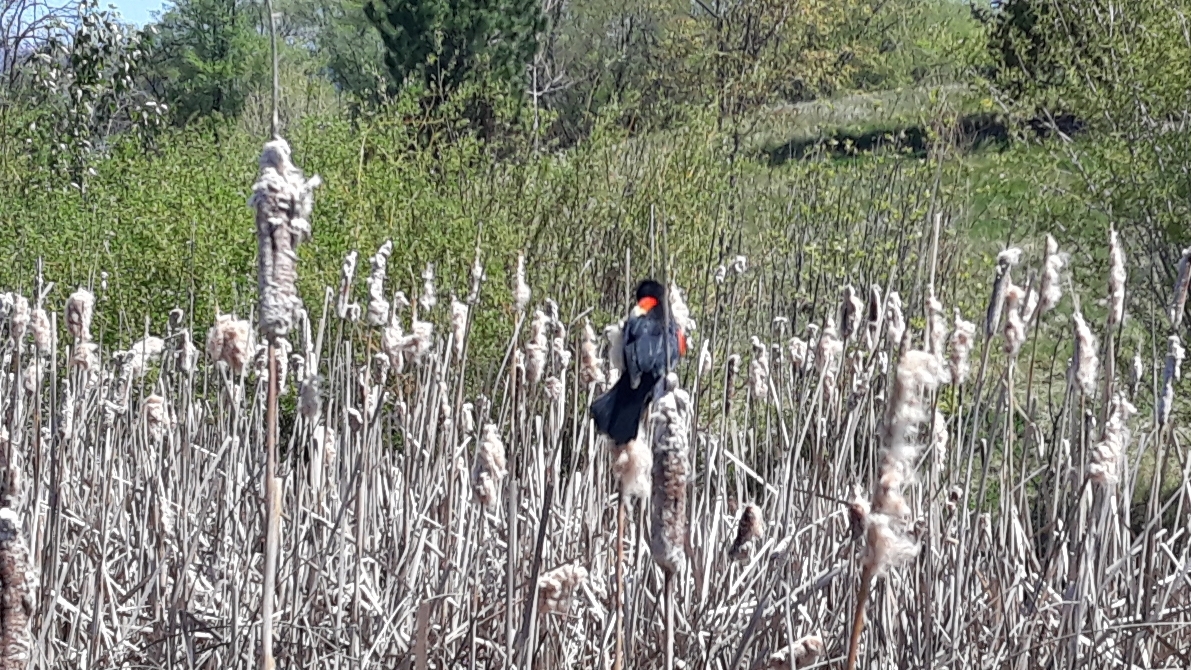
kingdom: Animalia
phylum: Chordata
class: Aves
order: Passeriformes
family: Icteridae
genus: Agelaius
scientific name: Agelaius phoeniceus
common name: Red-winged blackbird
